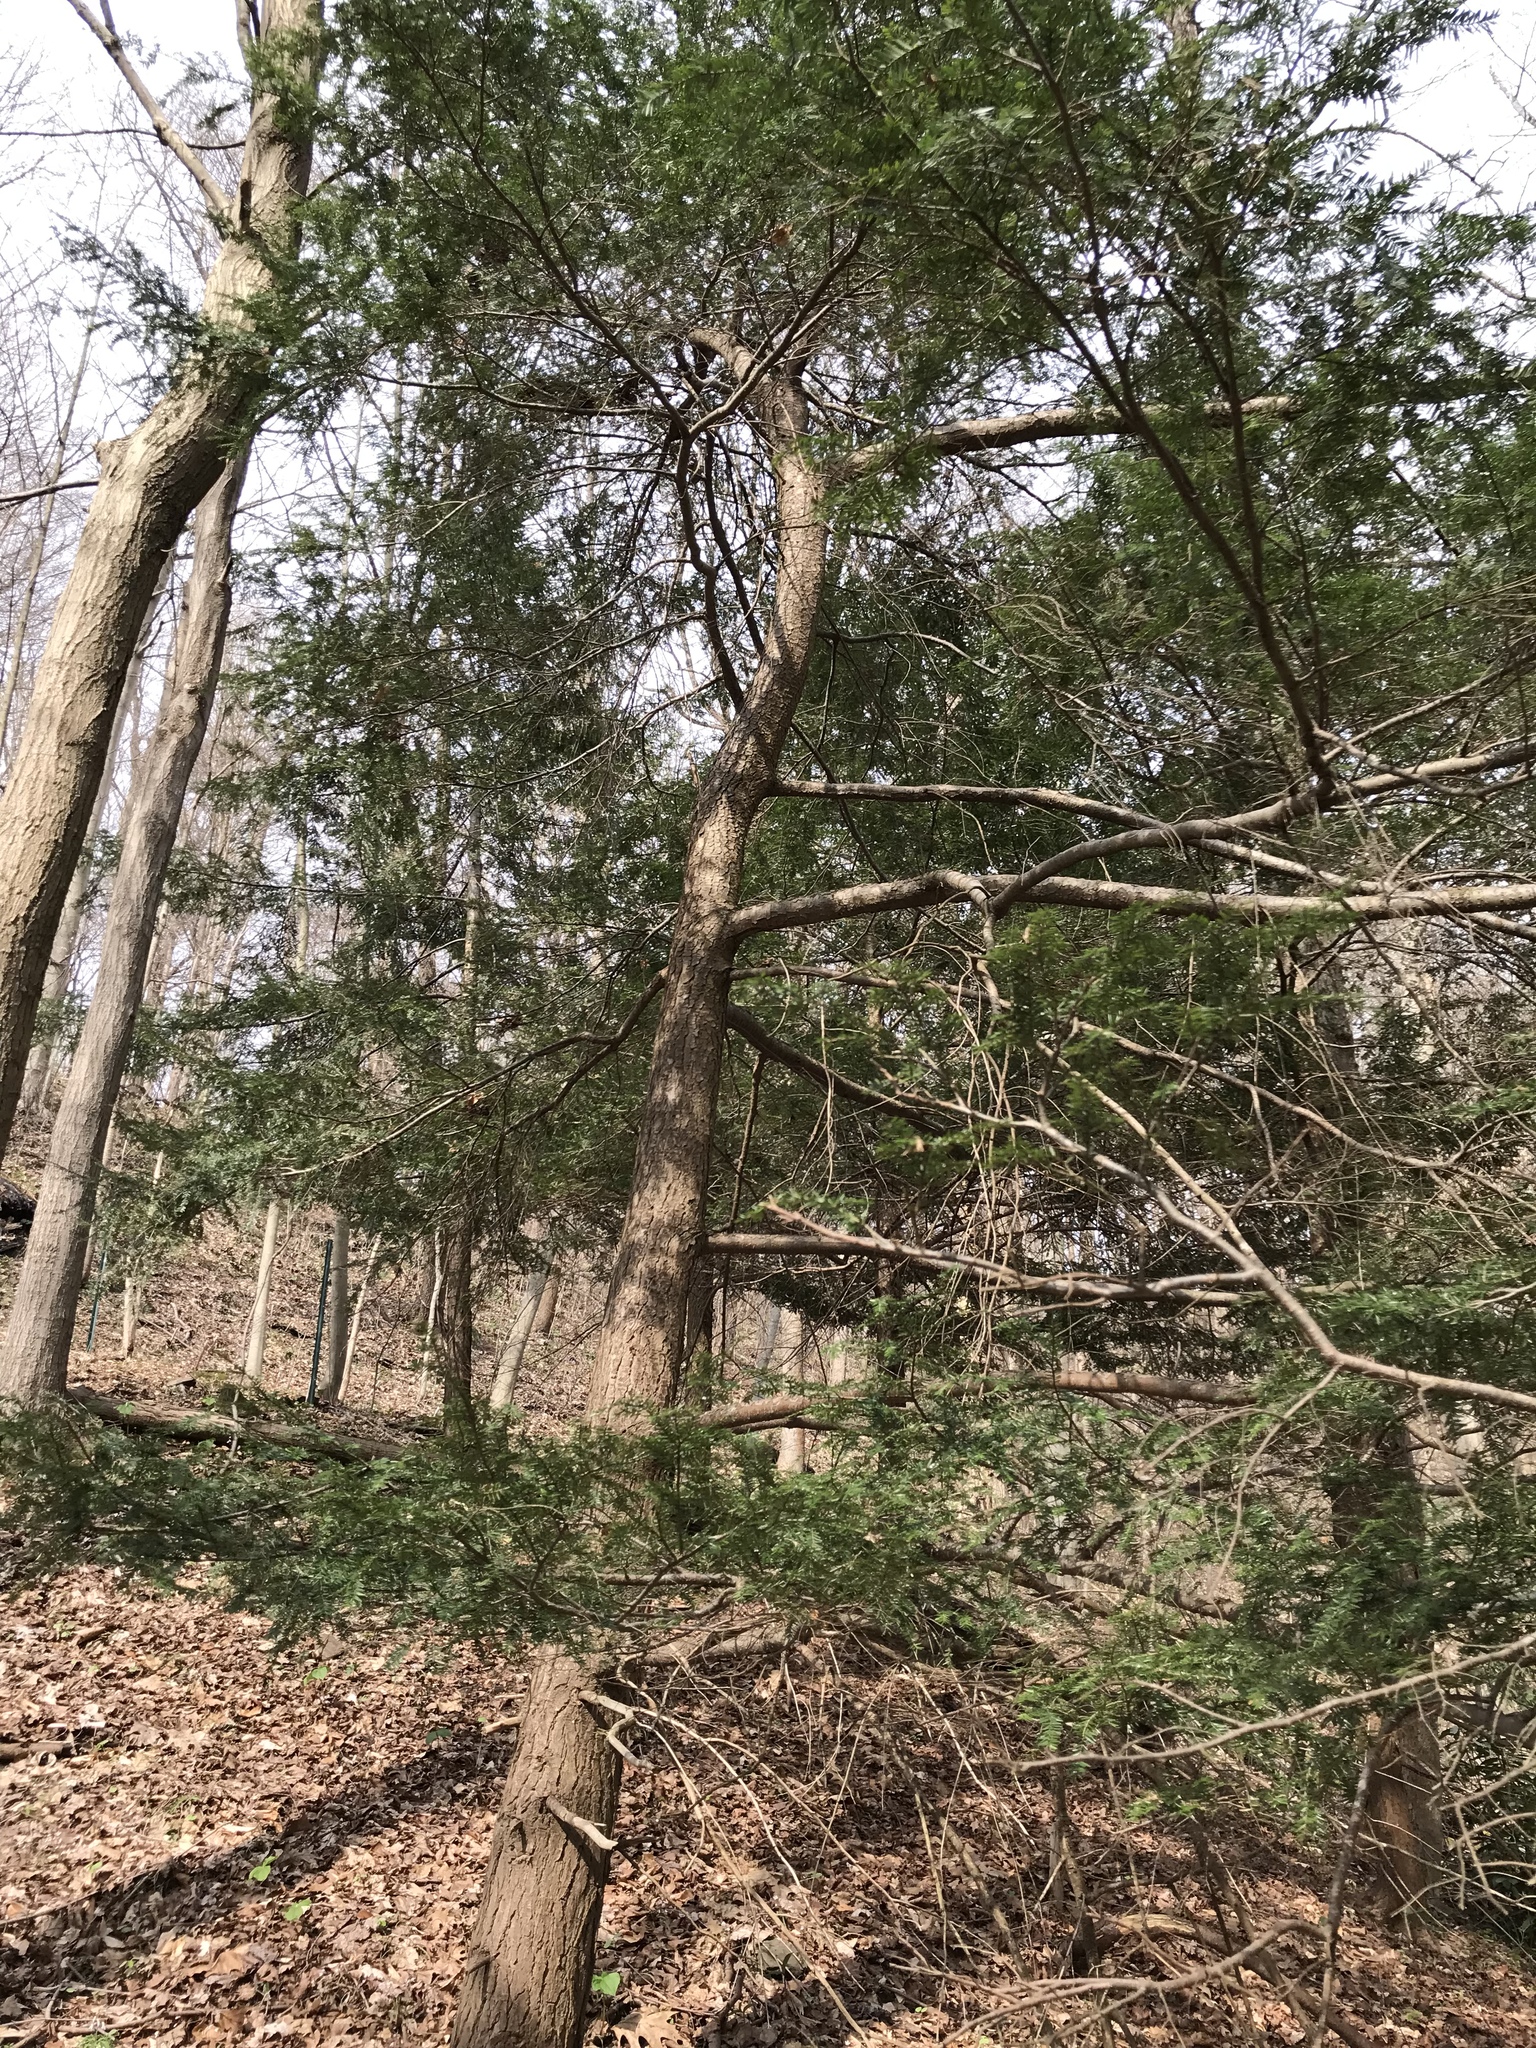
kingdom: Plantae
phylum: Tracheophyta
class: Pinopsida
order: Pinales
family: Pinaceae
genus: Tsuga
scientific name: Tsuga canadensis
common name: Eastern hemlock
